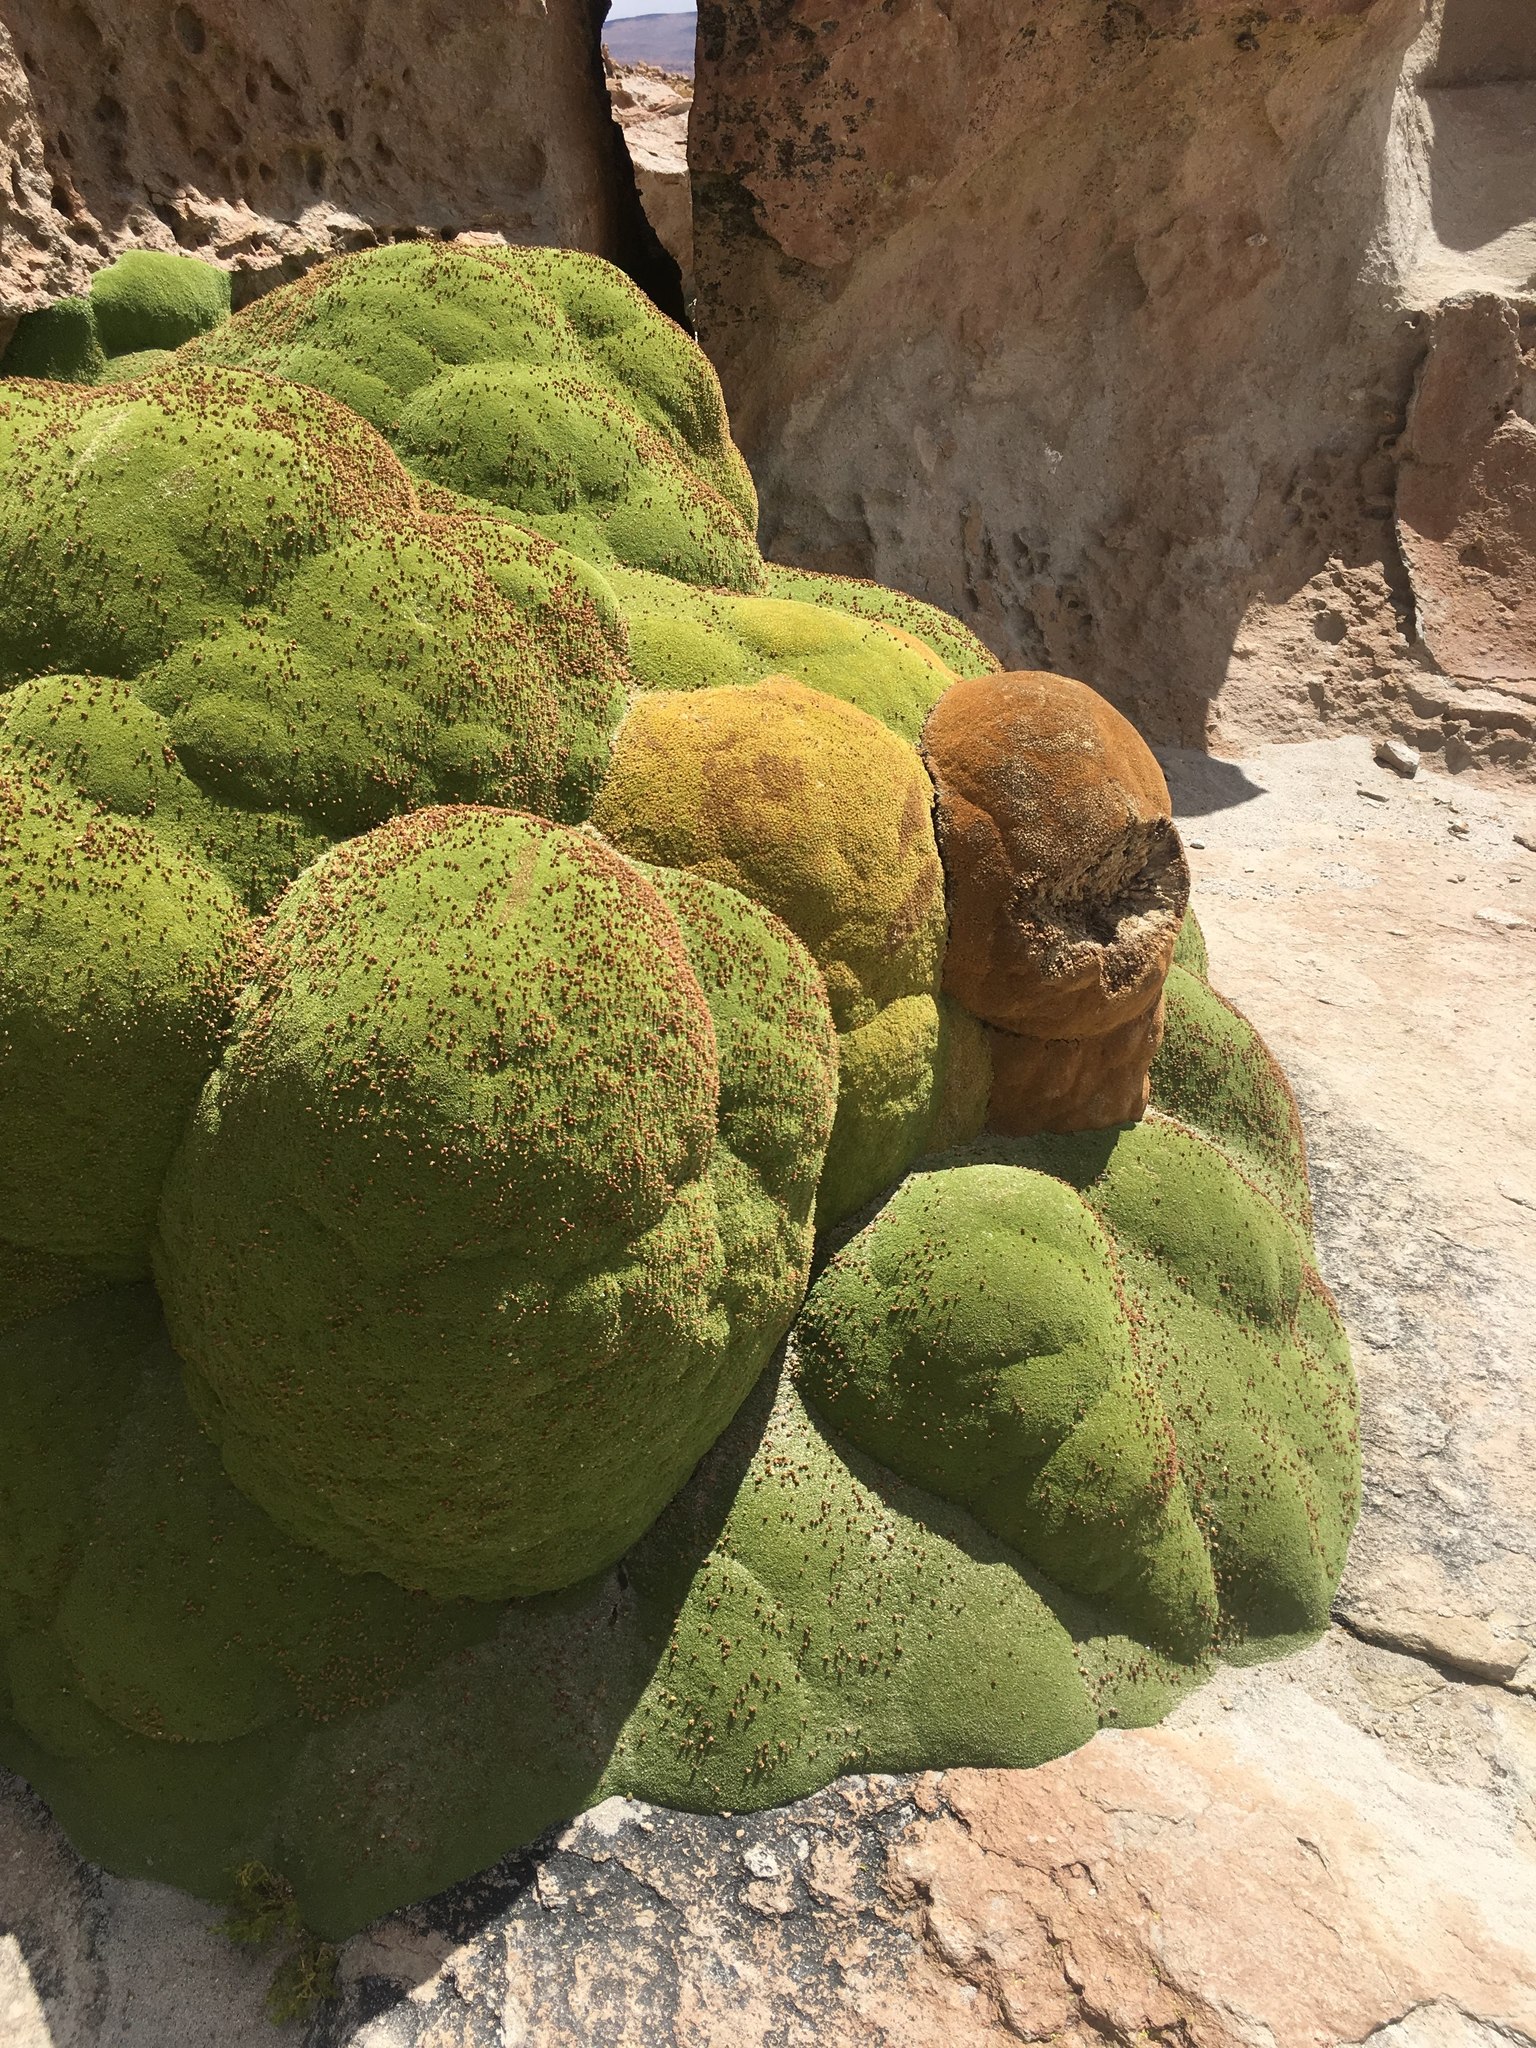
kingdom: Plantae
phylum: Tracheophyta
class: Magnoliopsida
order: Apiales
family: Apiaceae
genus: Azorella
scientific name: Azorella compacta
